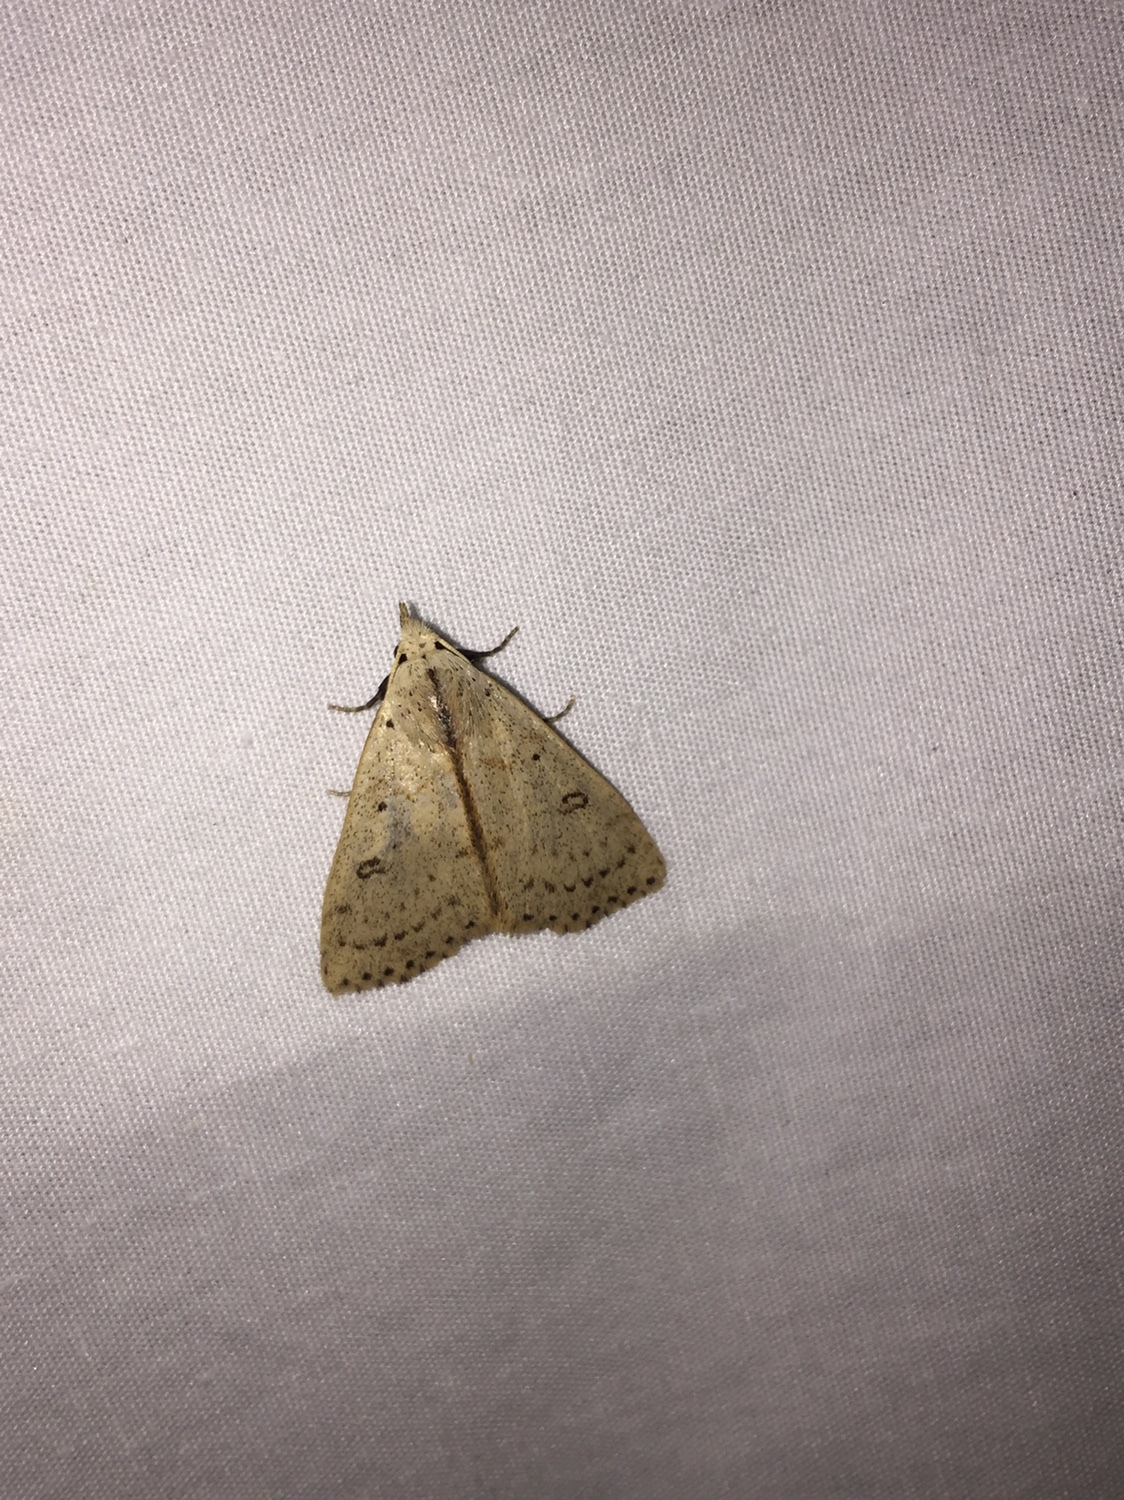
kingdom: Animalia
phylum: Arthropoda
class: Insecta
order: Lepidoptera
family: Erebidae
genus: Scolecocampa
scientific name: Scolecocampa liburna
